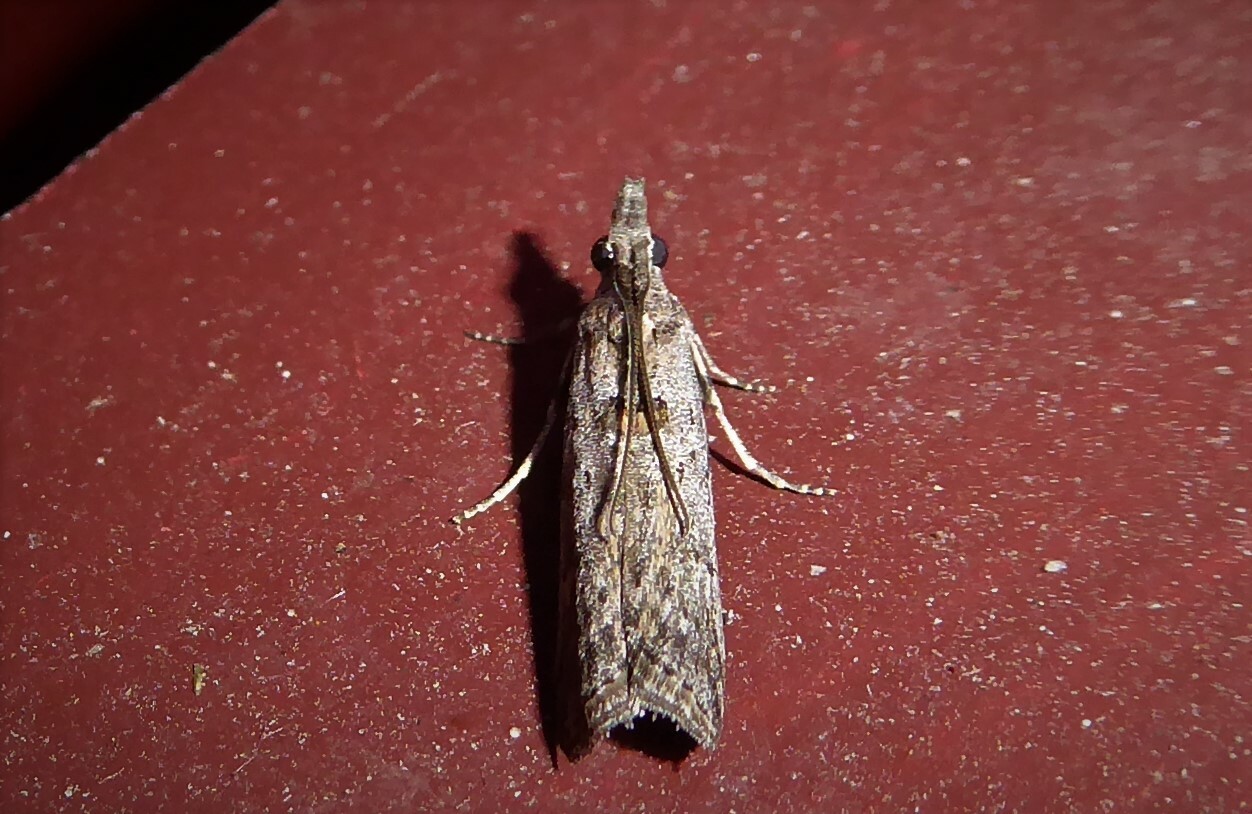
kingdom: Animalia
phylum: Arthropoda
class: Insecta
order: Lepidoptera
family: Pyralidae
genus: Crocydopora
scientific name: Crocydopora cinigerella
